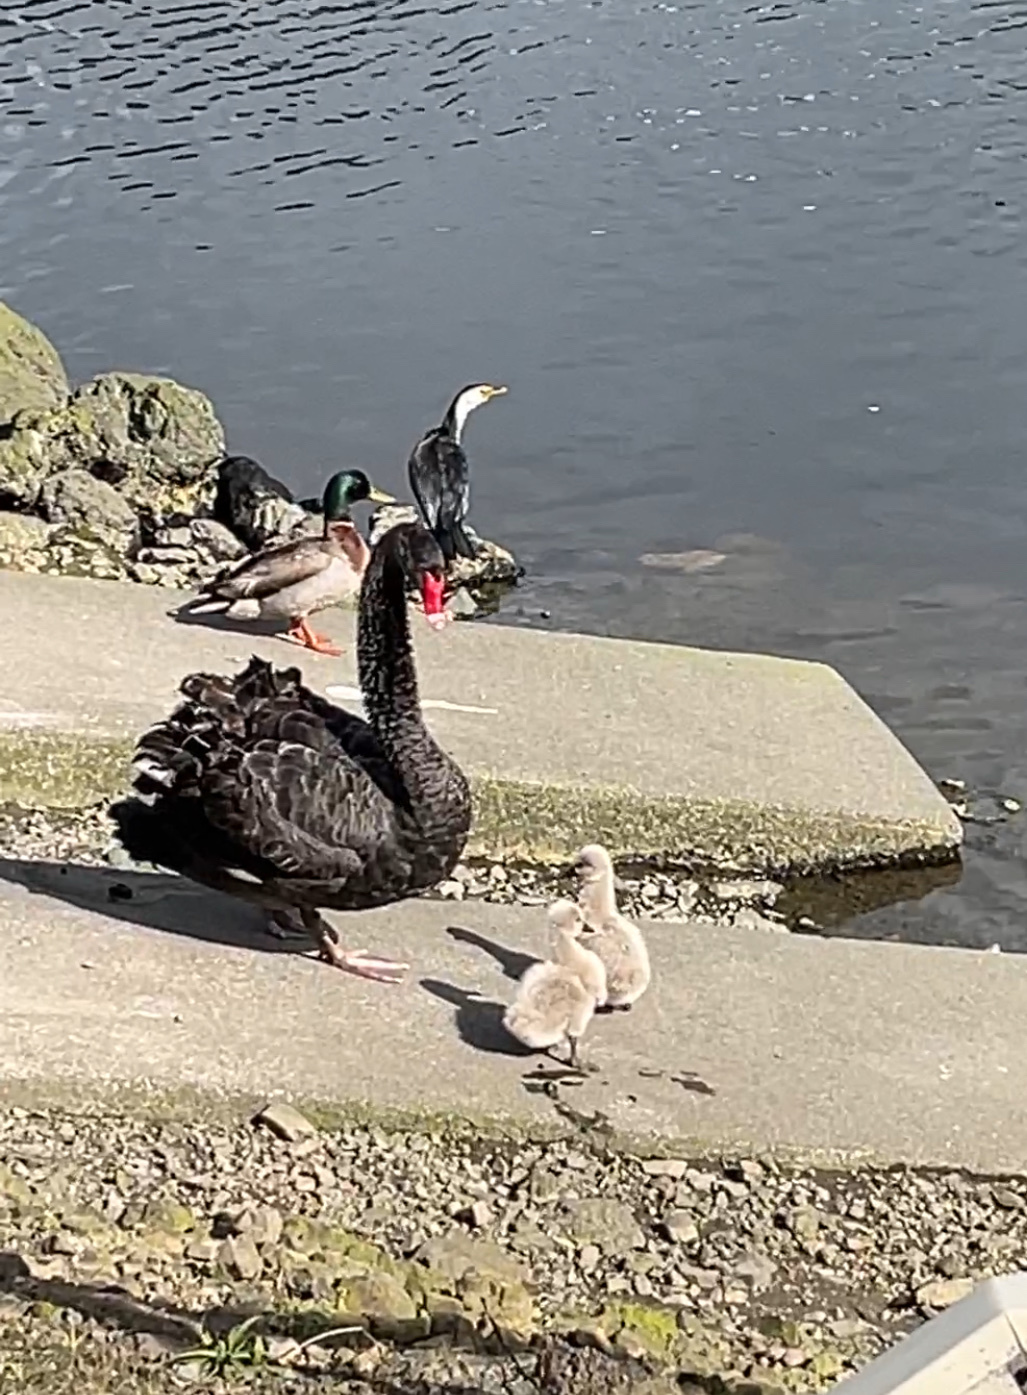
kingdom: Animalia
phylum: Chordata
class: Aves
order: Suliformes
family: Phalacrocoracidae
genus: Microcarbo
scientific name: Microcarbo melanoleucos
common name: Little pied cormorant
